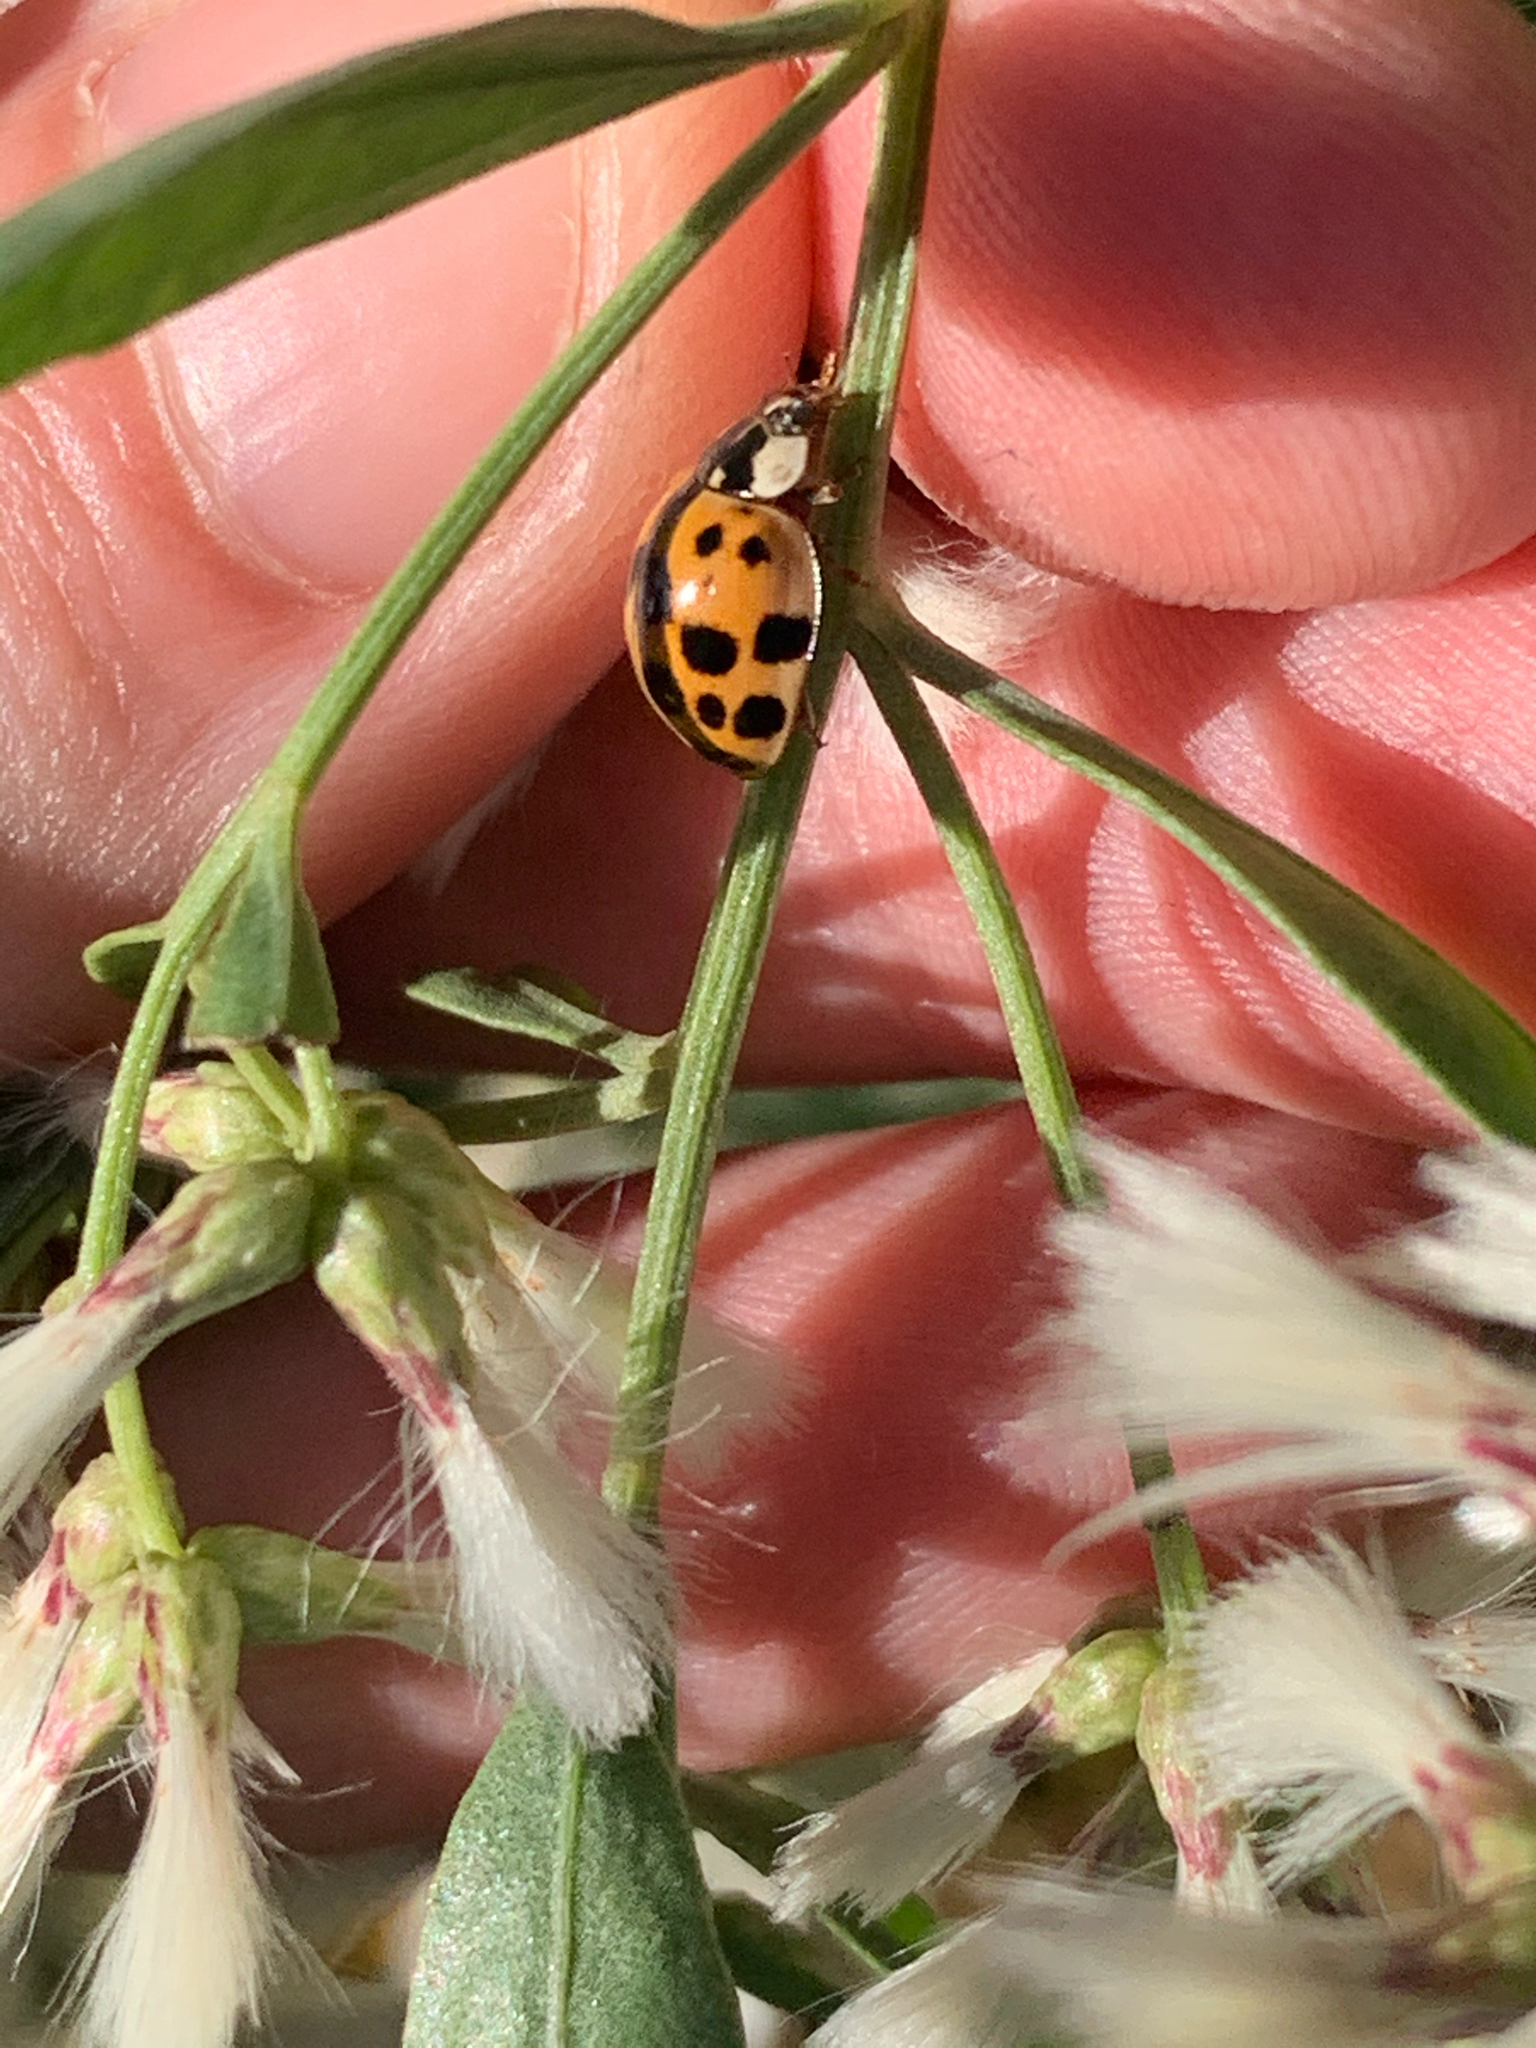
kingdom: Animalia
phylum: Arthropoda
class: Insecta
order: Coleoptera
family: Coccinellidae
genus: Harmonia
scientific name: Harmonia axyridis
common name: Harlequin ladybird
